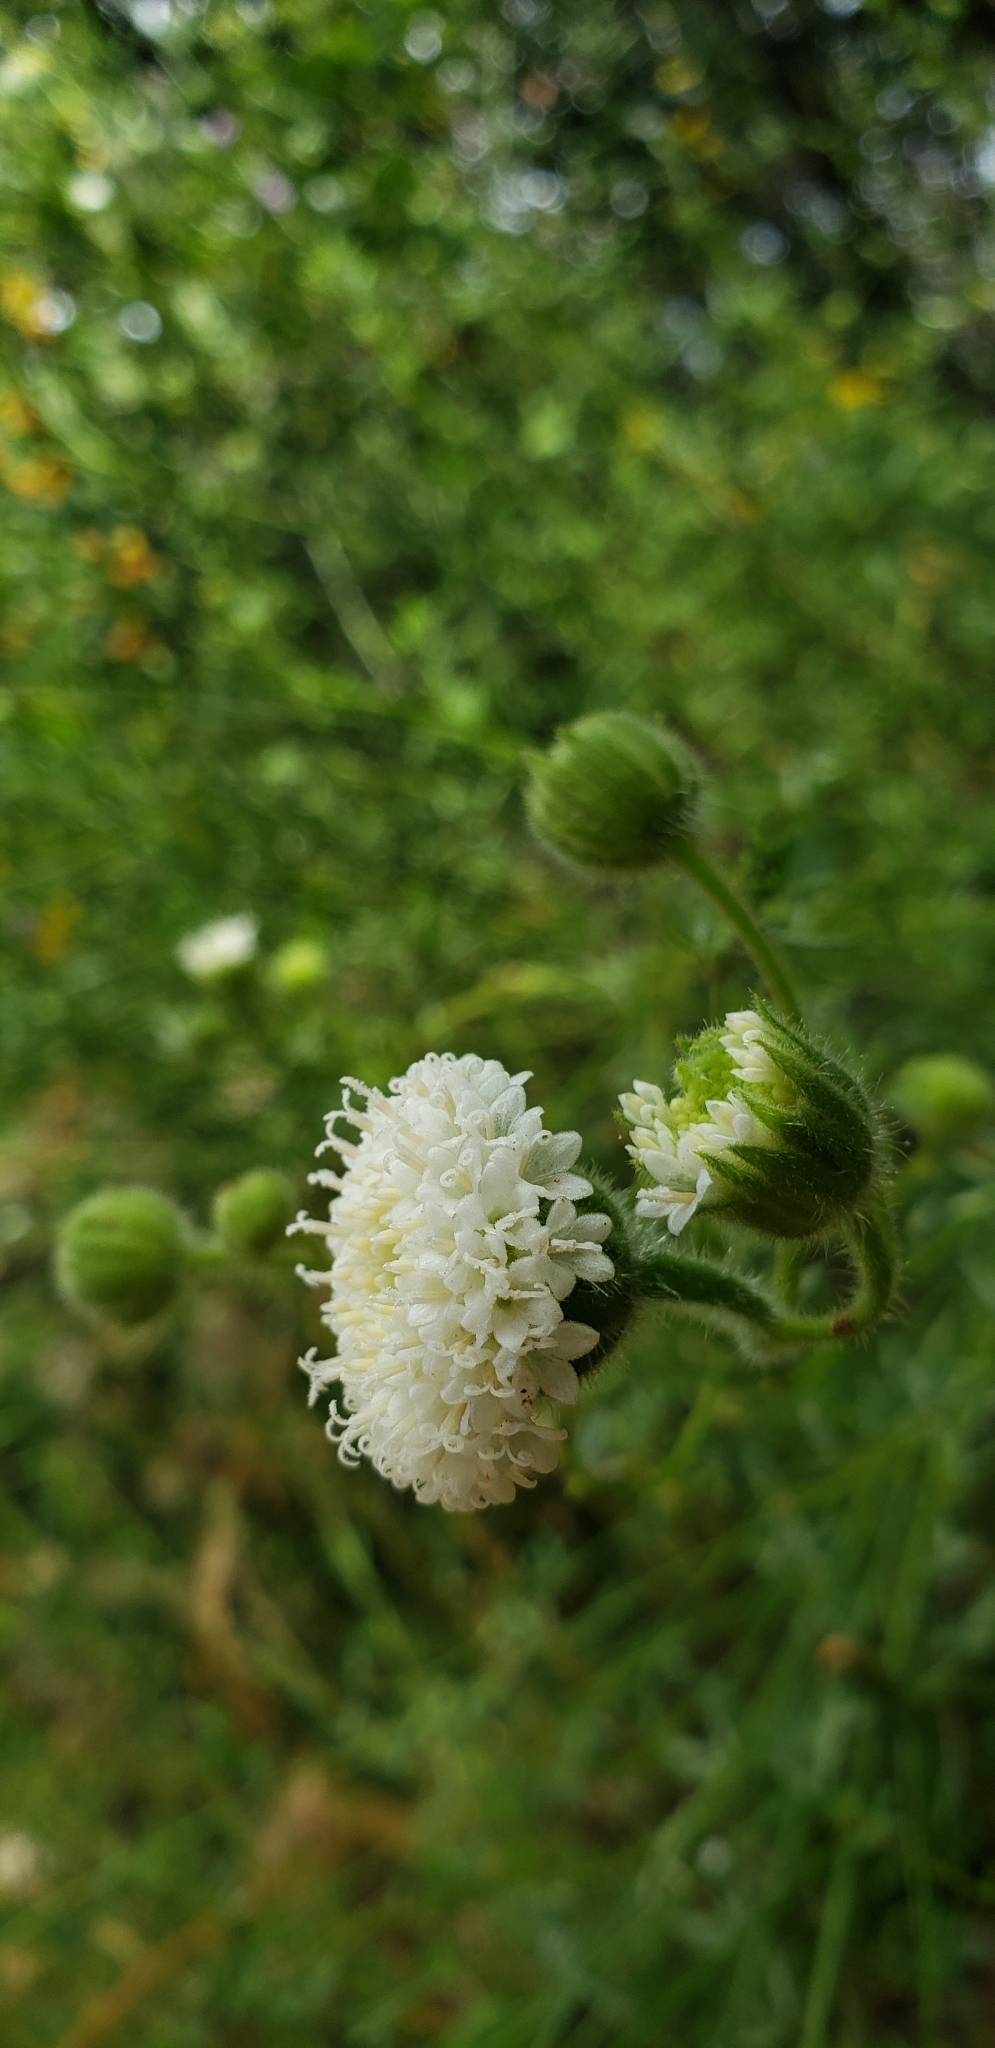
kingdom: Plantae
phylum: Tracheophyta
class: Magnoliopsida
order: Asterales
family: Asteraceae
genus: Chaenactis
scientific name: Chaenactis artemisiifolia
